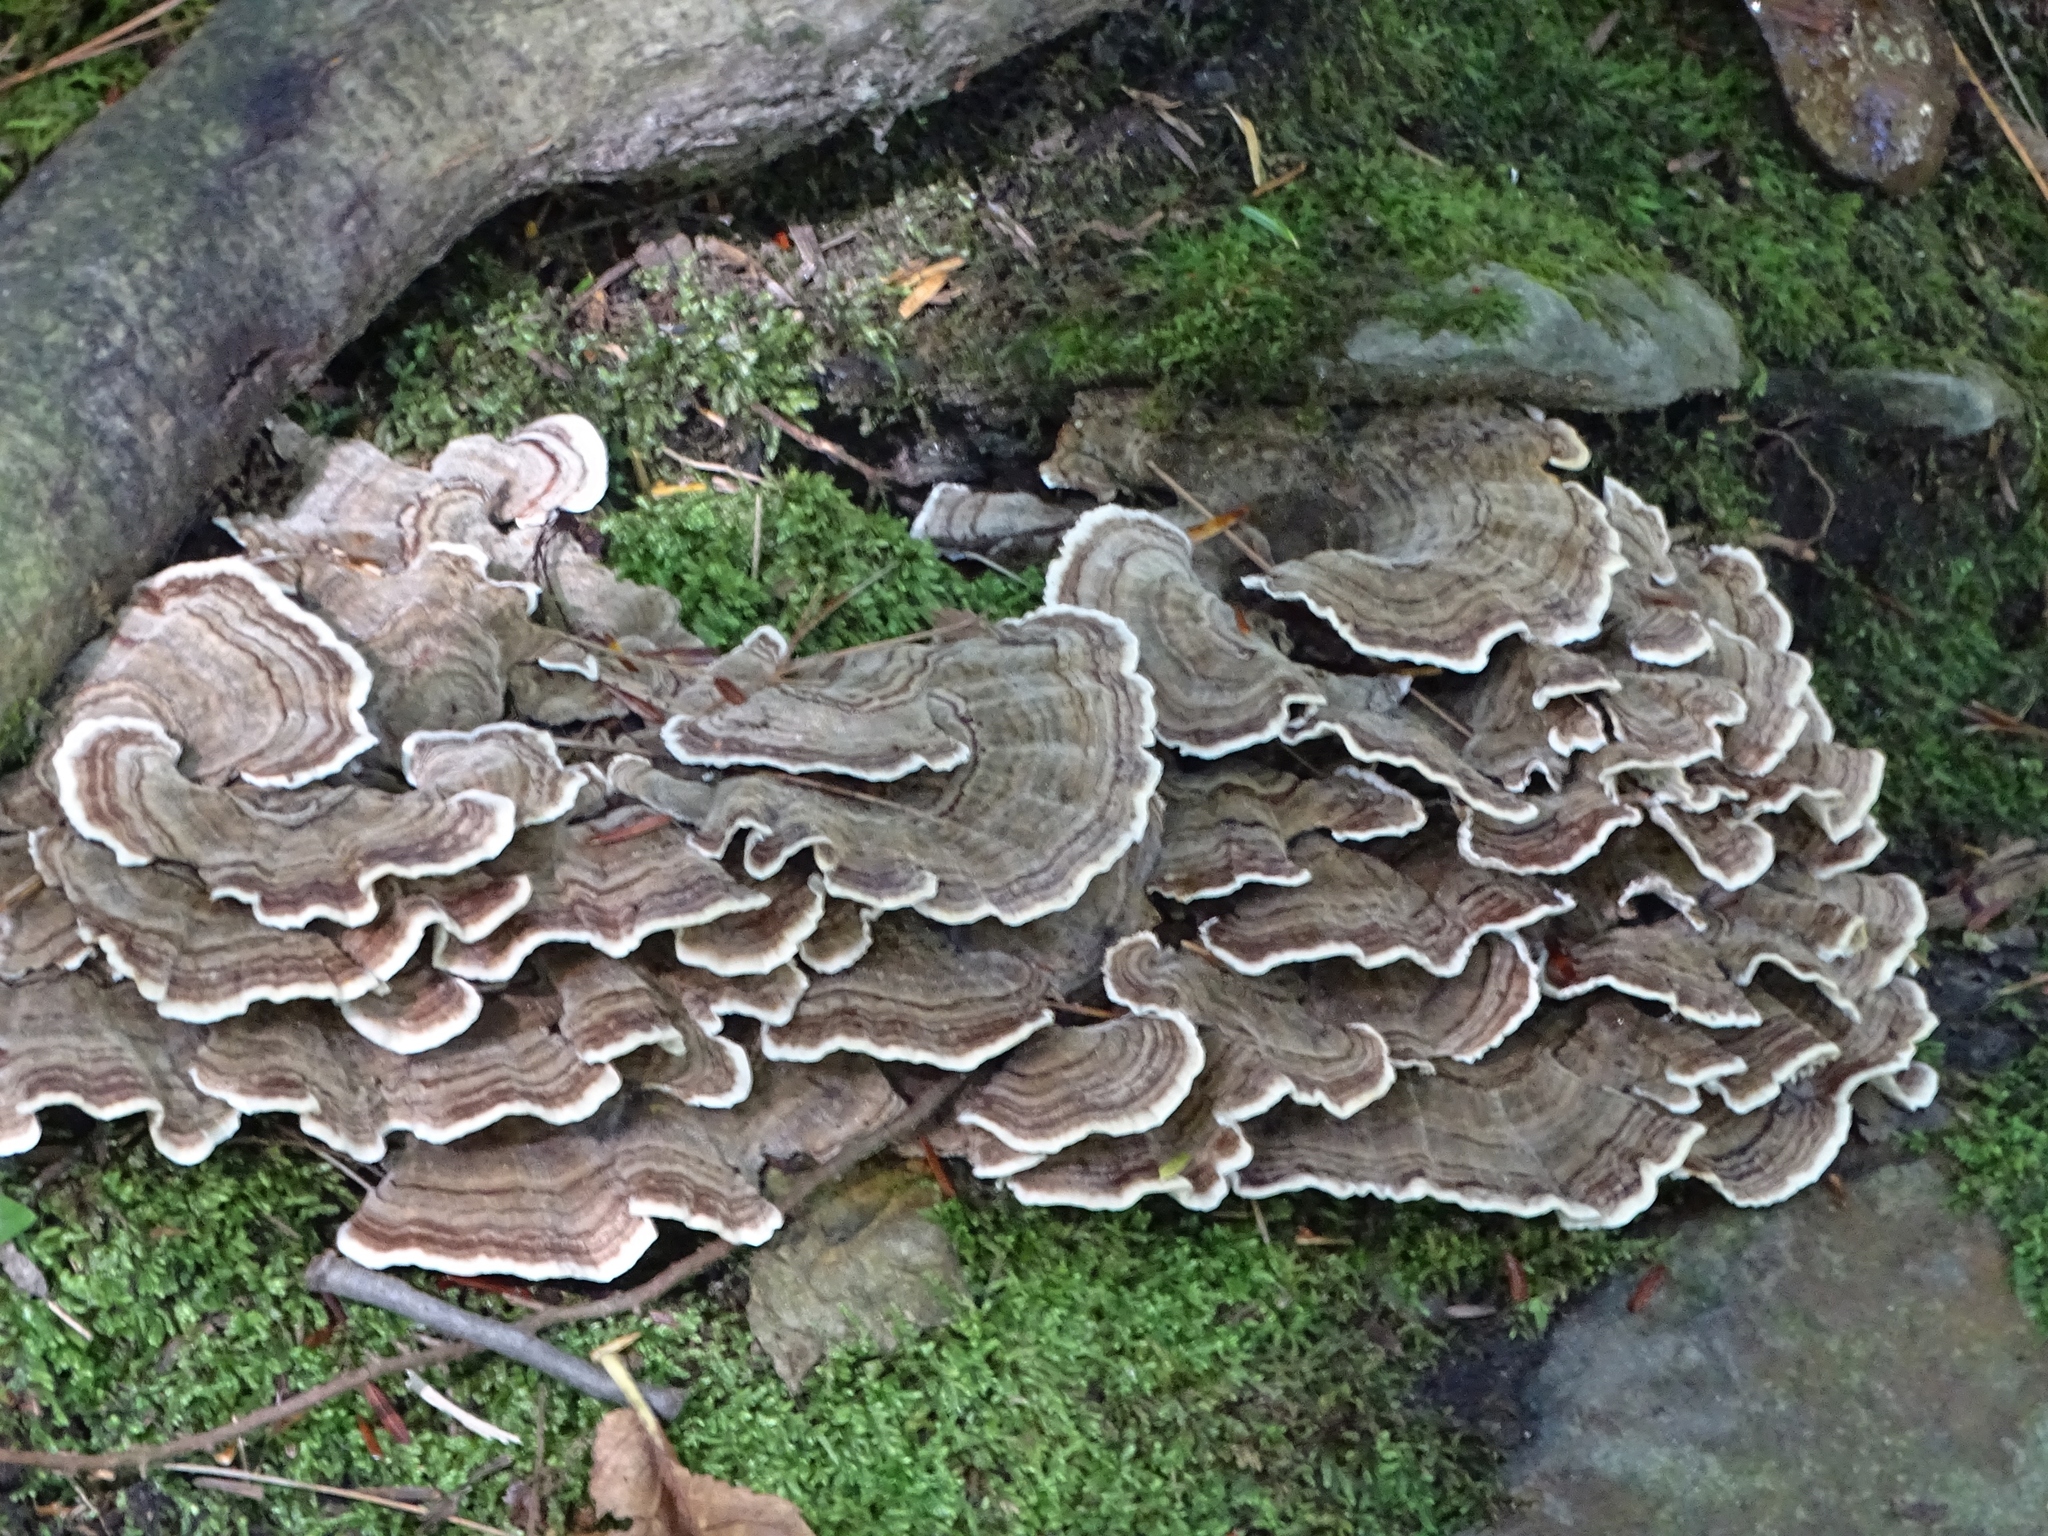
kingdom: Fungi
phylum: Basidiomycota
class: Agaricomycetes
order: Polyporales
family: Polyporaceae
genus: Trametes
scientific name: Trametes versicolor
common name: Turkeytail
